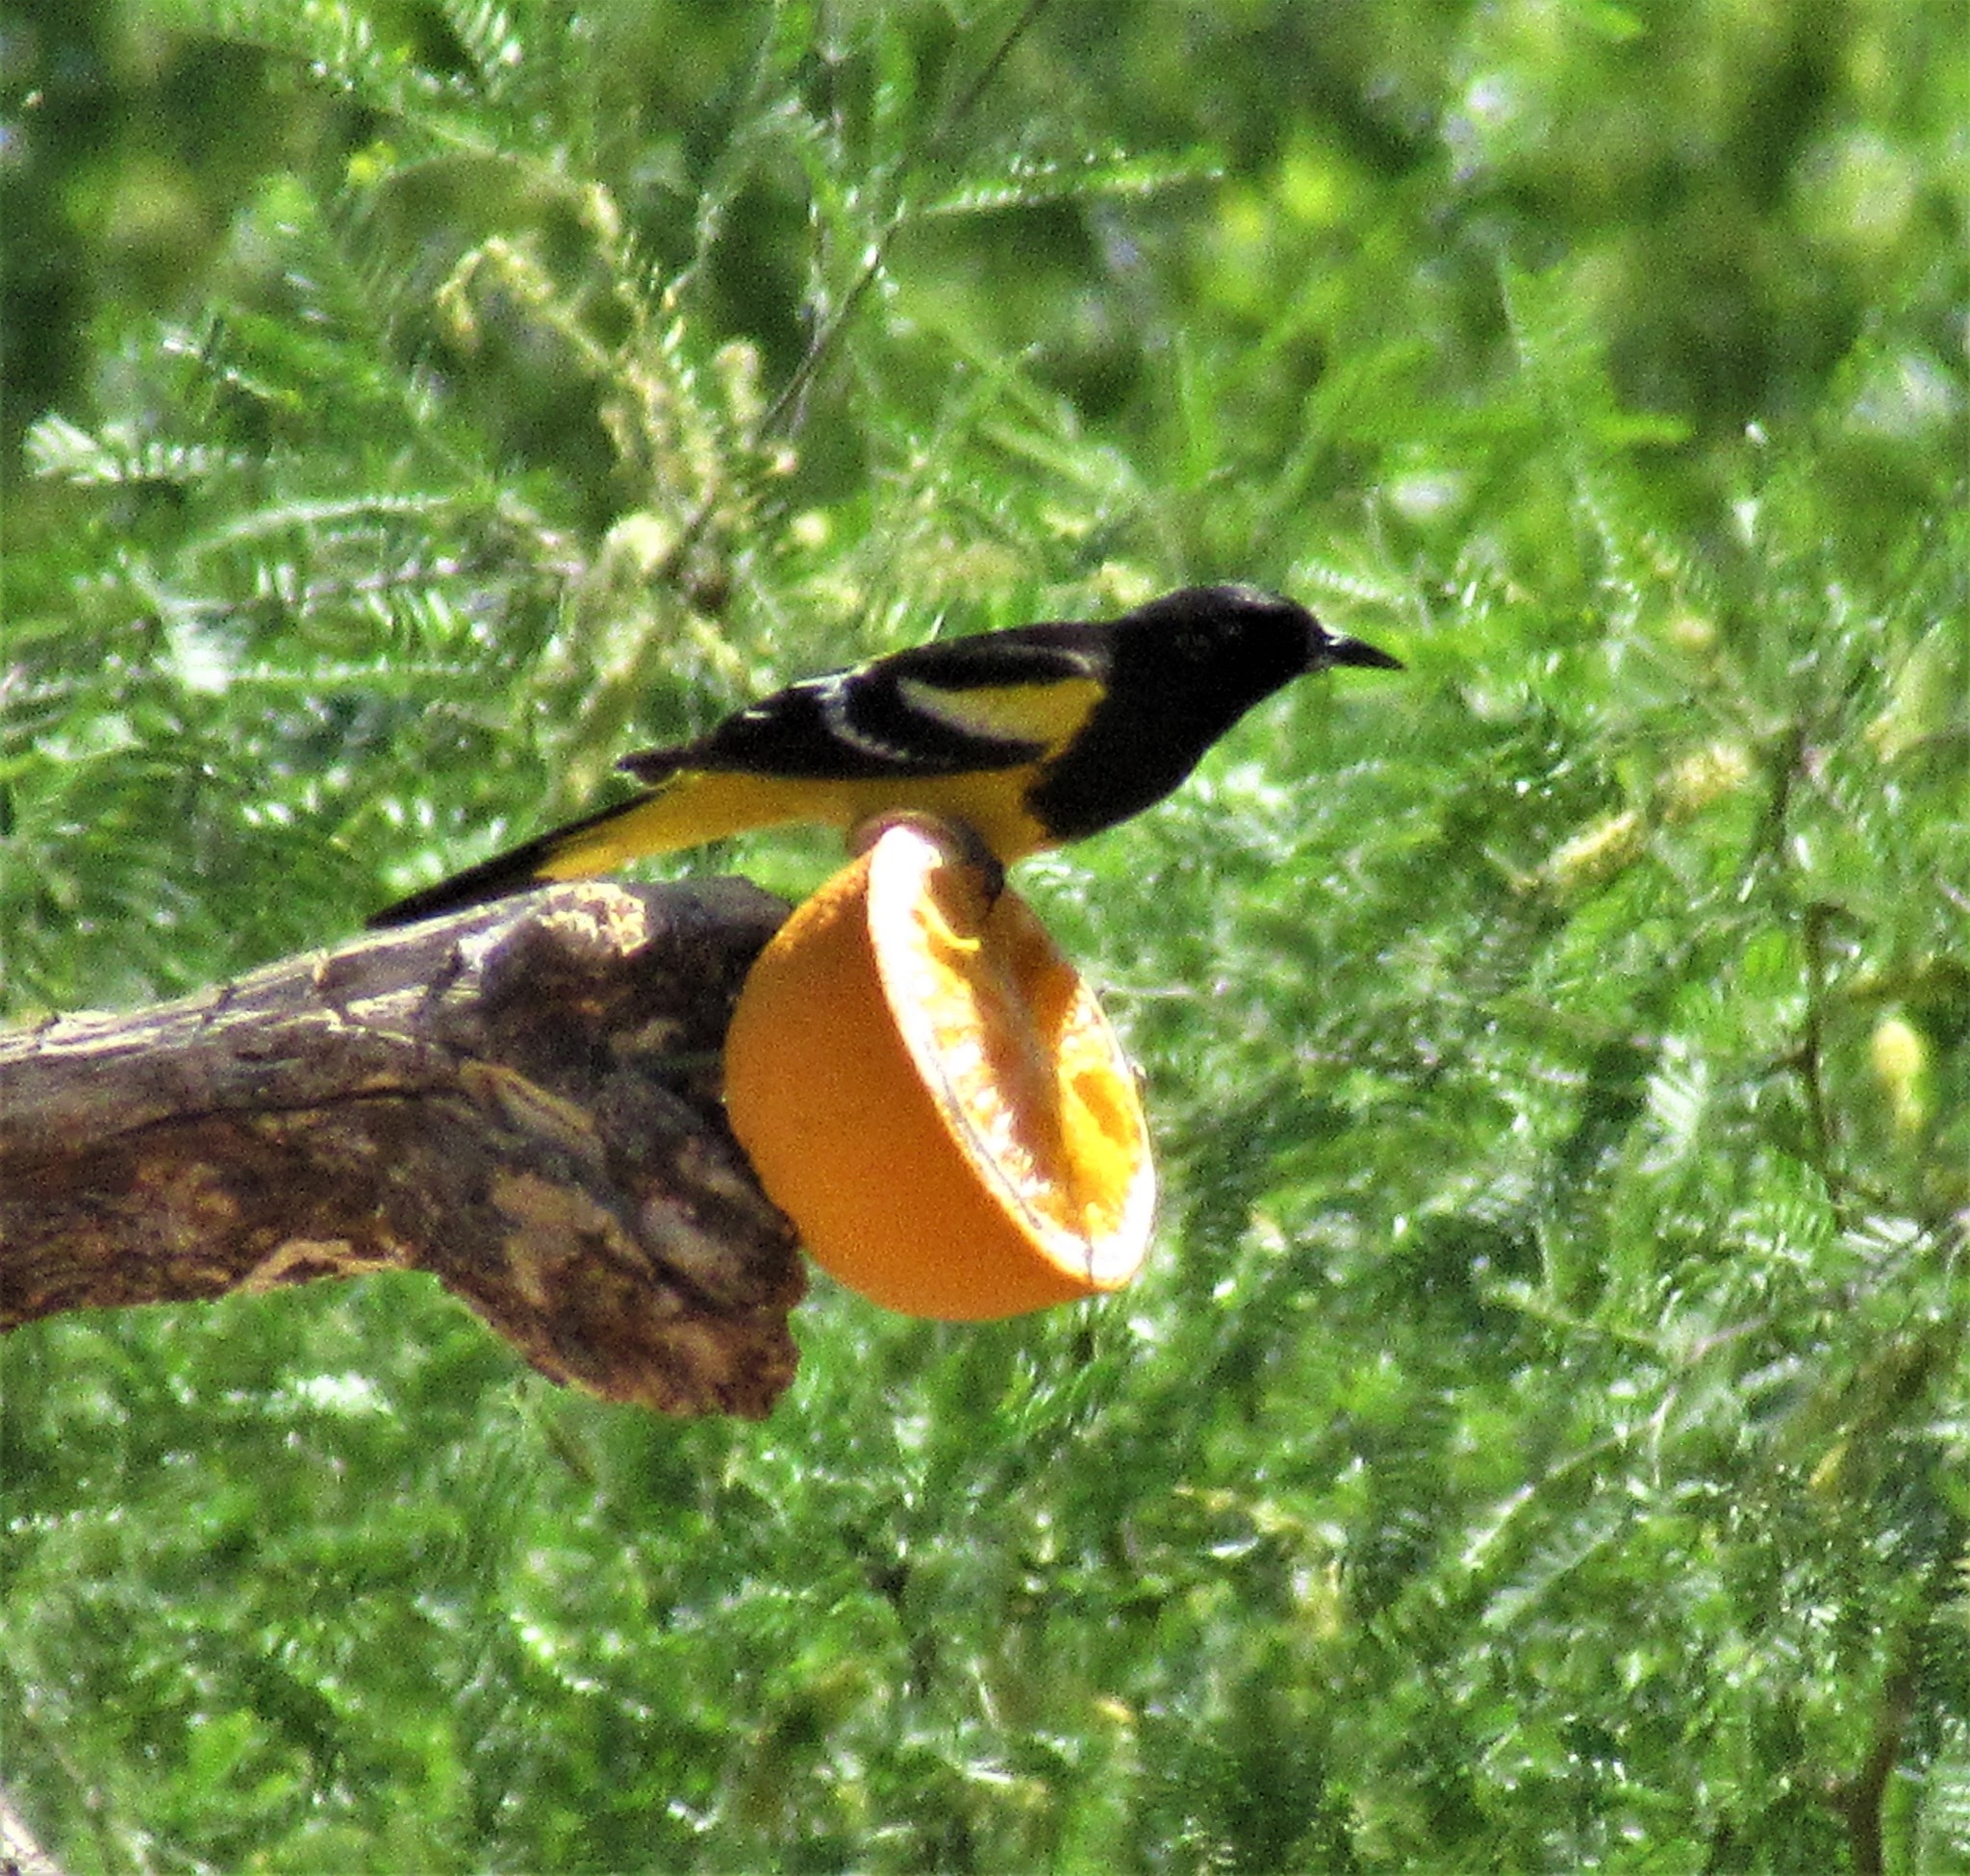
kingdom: Animalia
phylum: Chordata
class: Aves
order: Passeriformes
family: Icteridae
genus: Icterus
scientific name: Icterus parisorum
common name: Scott's oriole
